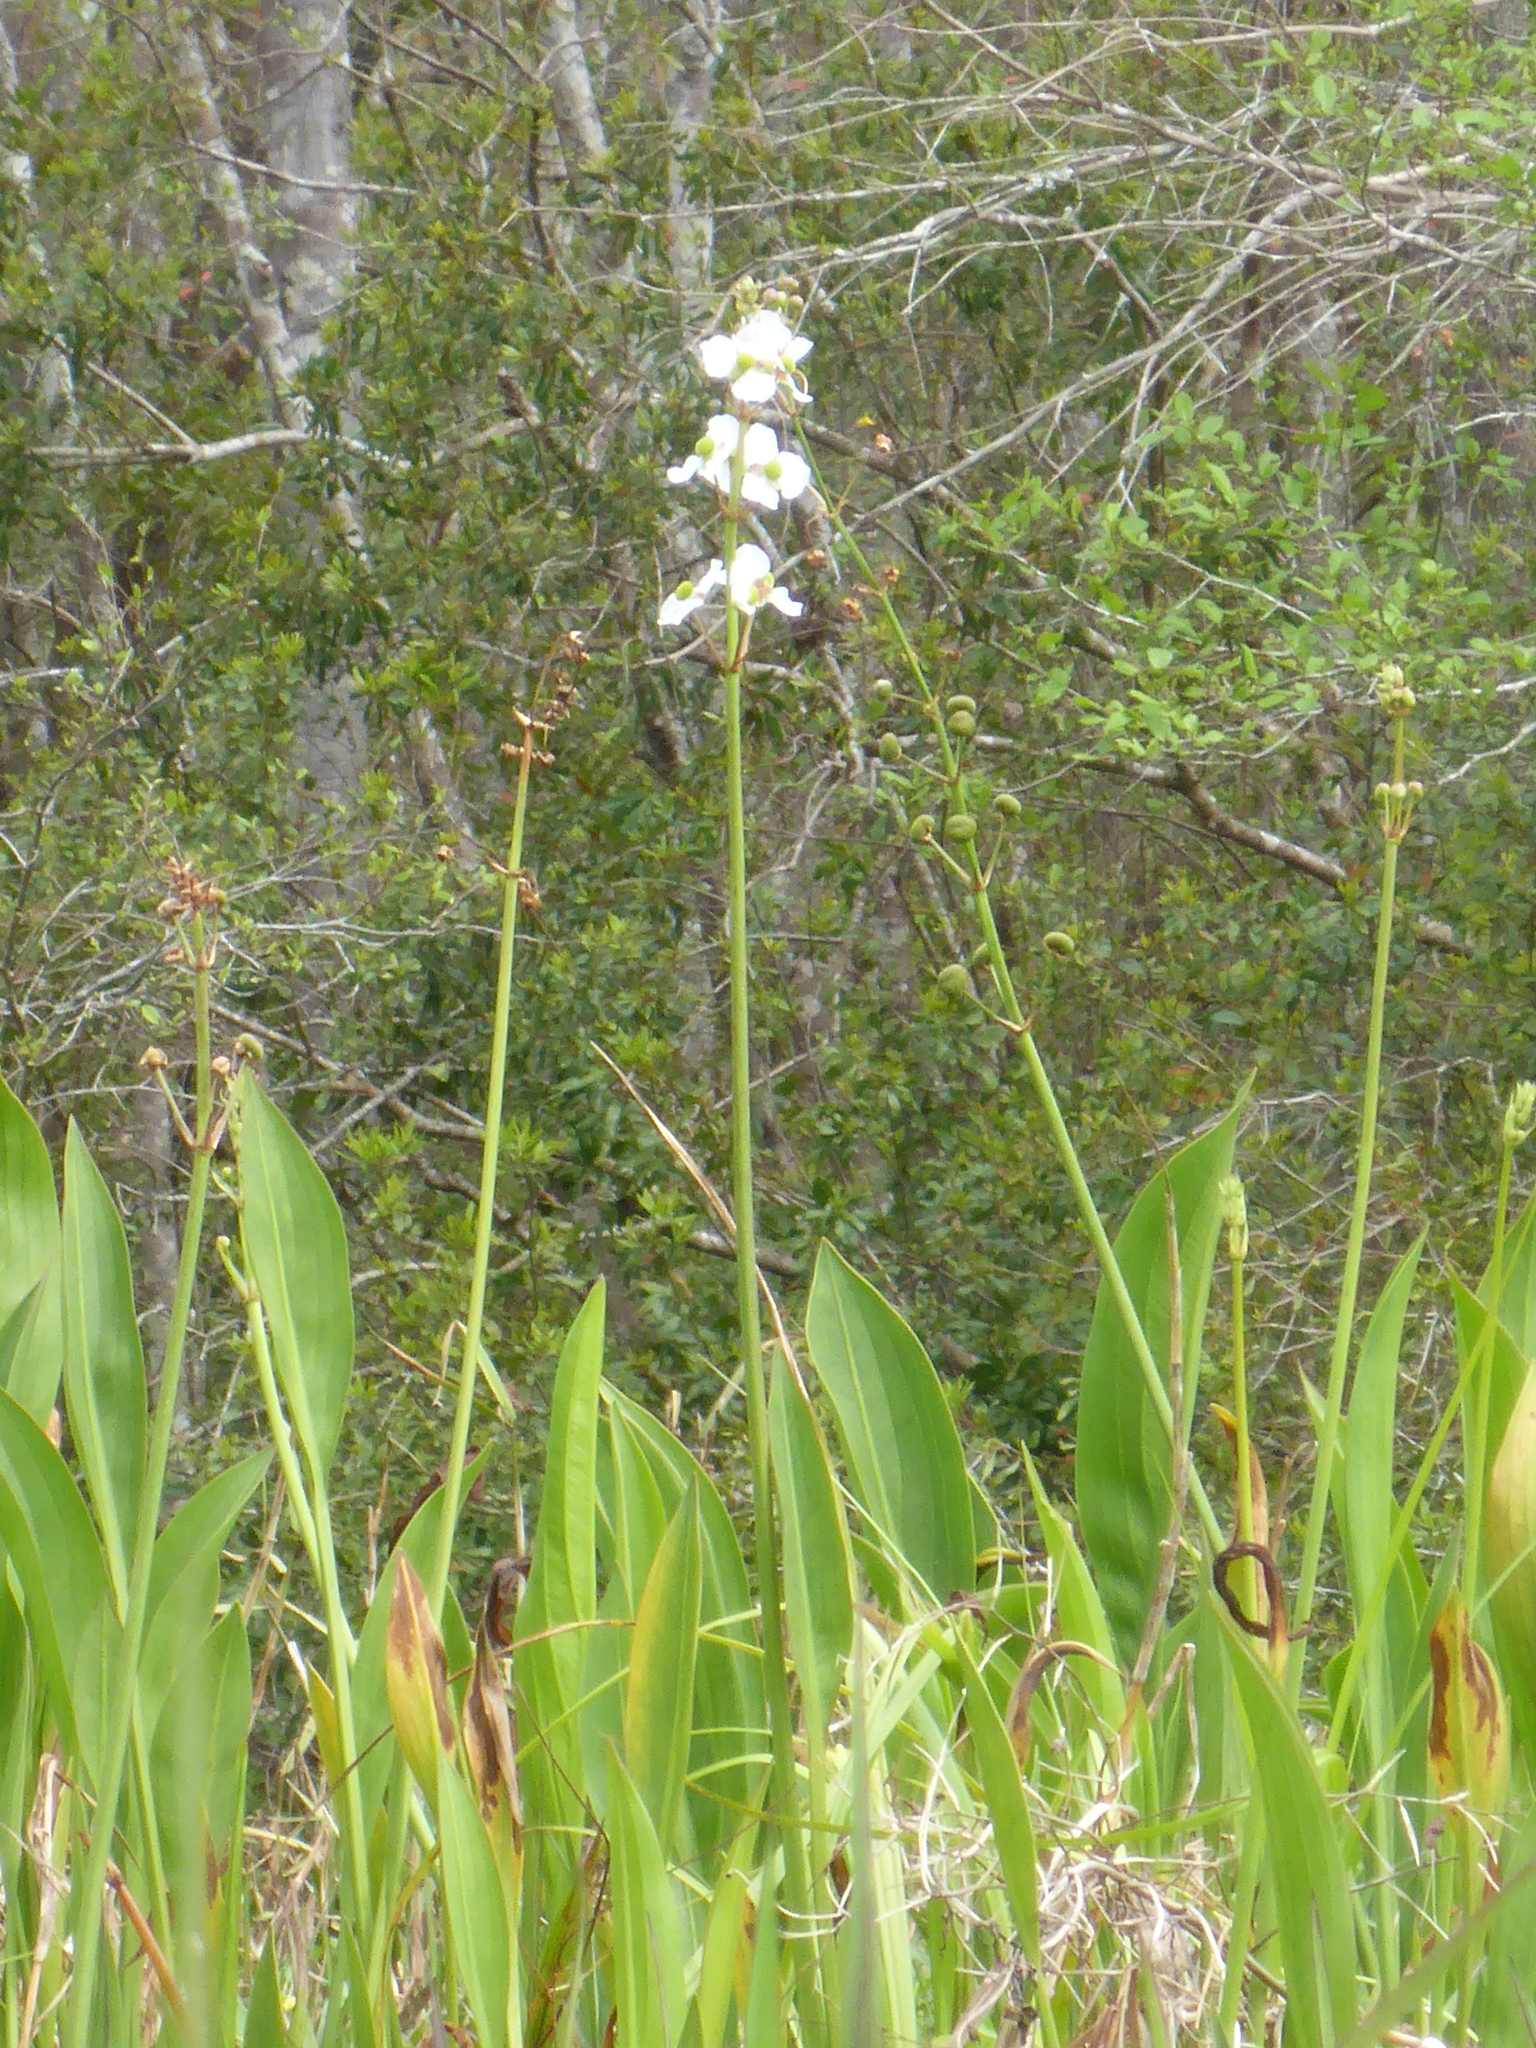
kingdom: Plantae
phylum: Tracheophyta
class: Liliopsida
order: Alismatales
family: Alismataceae
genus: Sagittaria
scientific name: Sagittaria lancifolia
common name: Lance-leaf arrowhead
